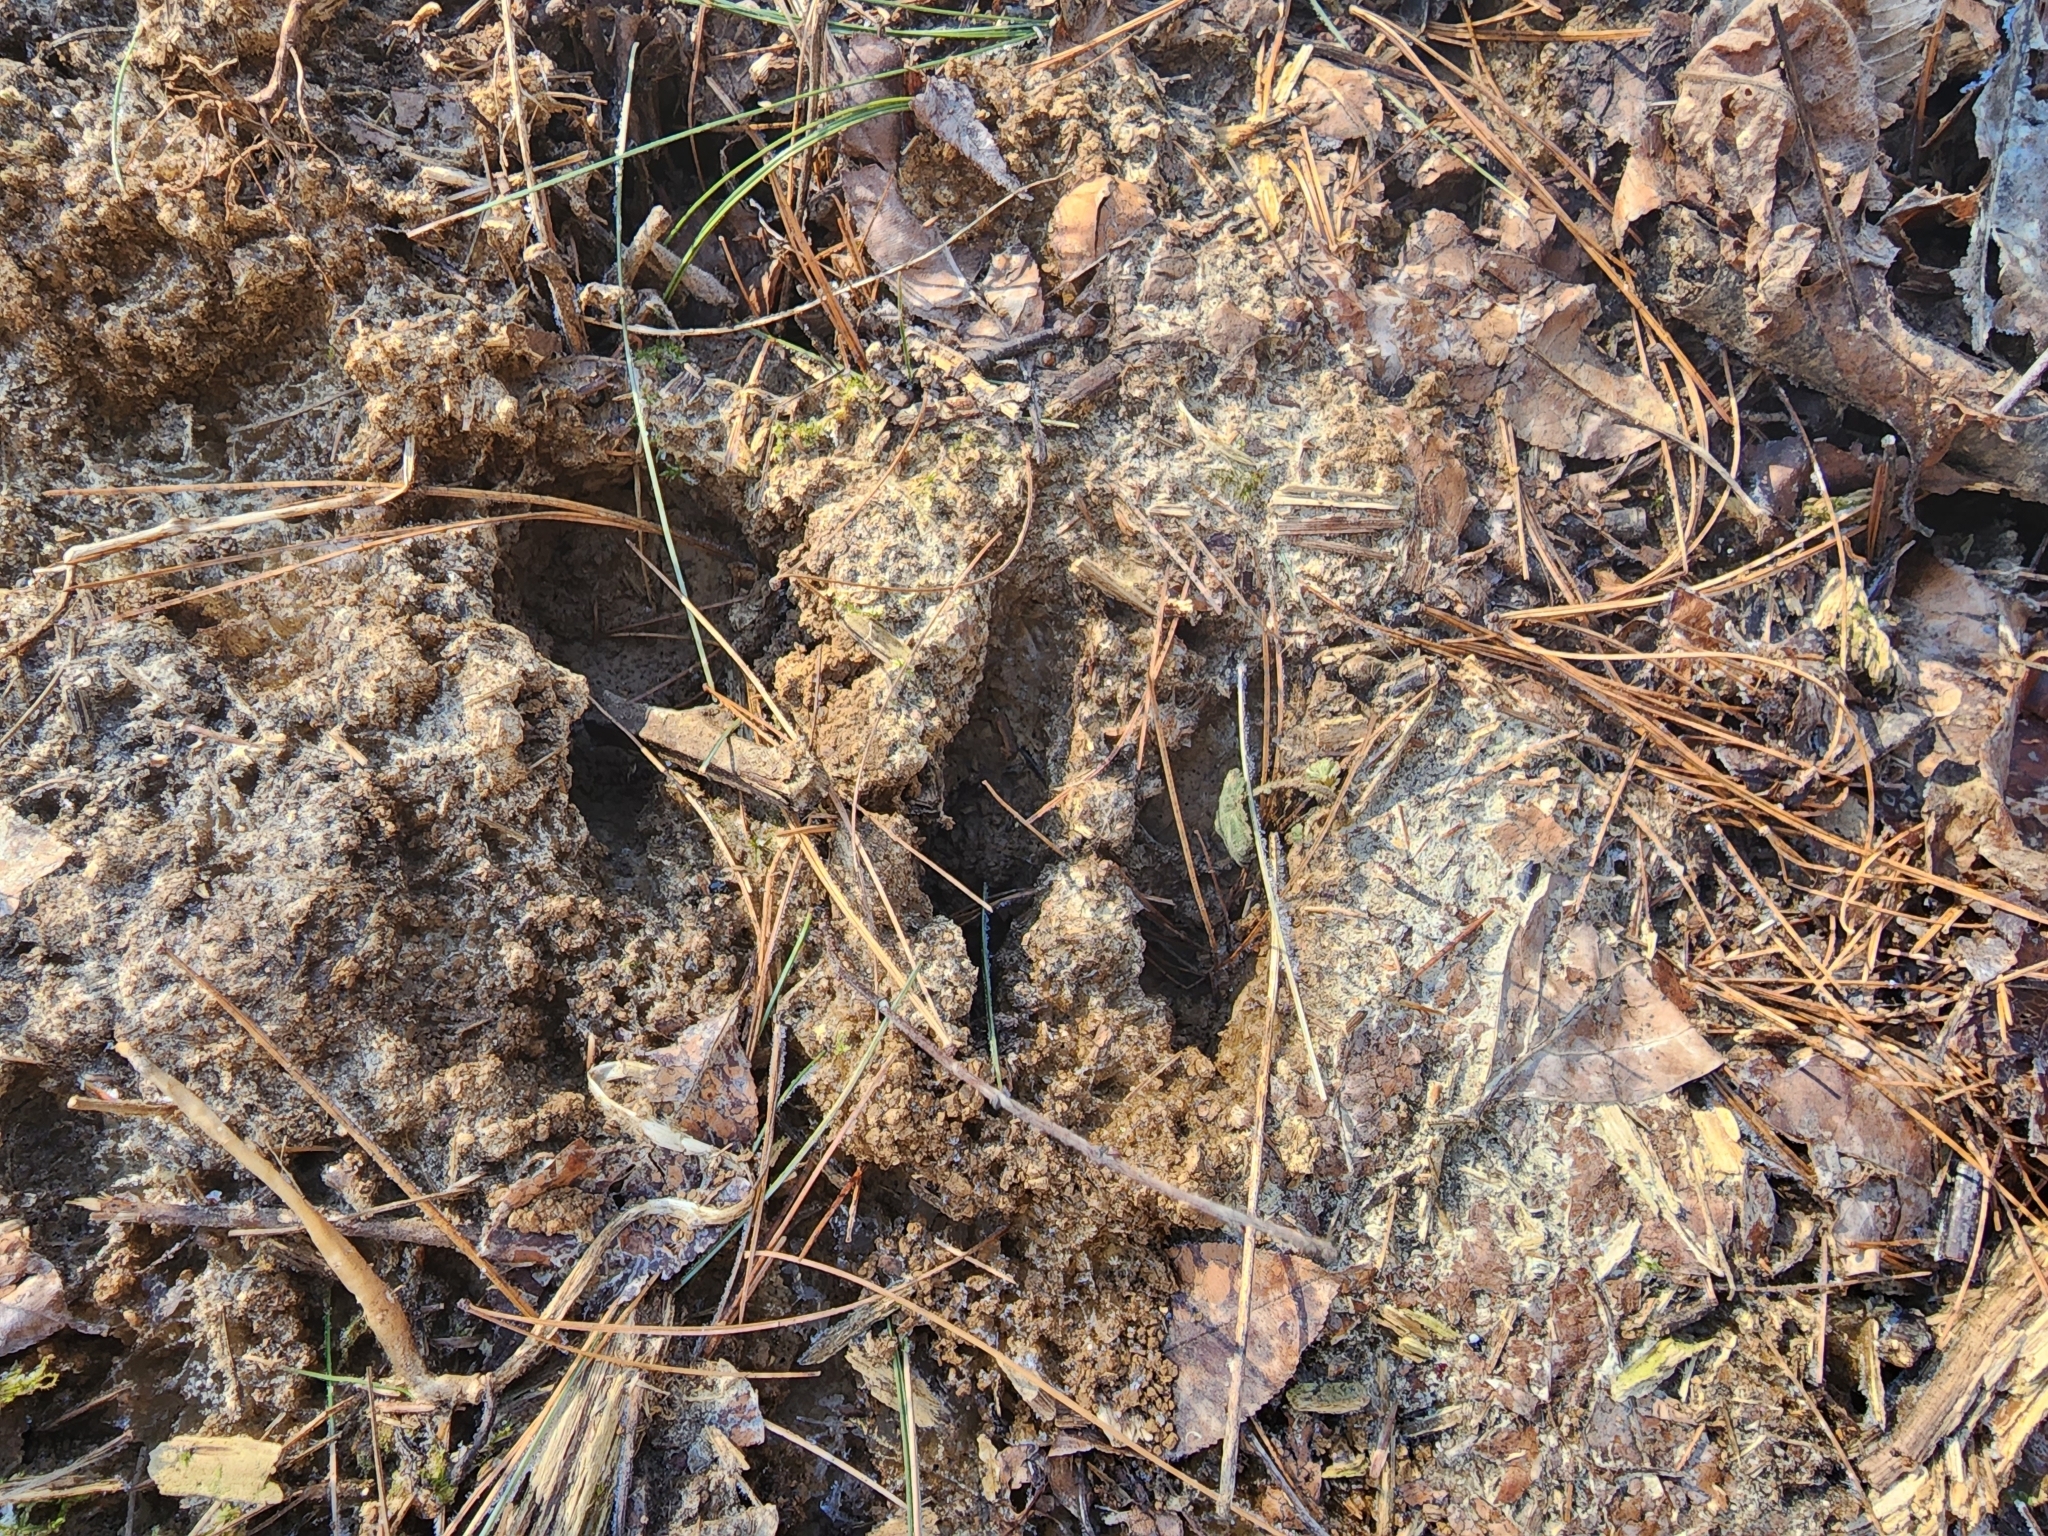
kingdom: Animalia
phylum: Chordata
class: Mammalia
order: Artiodactyla
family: Cervidae
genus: Odocoileus
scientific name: Odocoileus virginianus
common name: White-tailed deer
